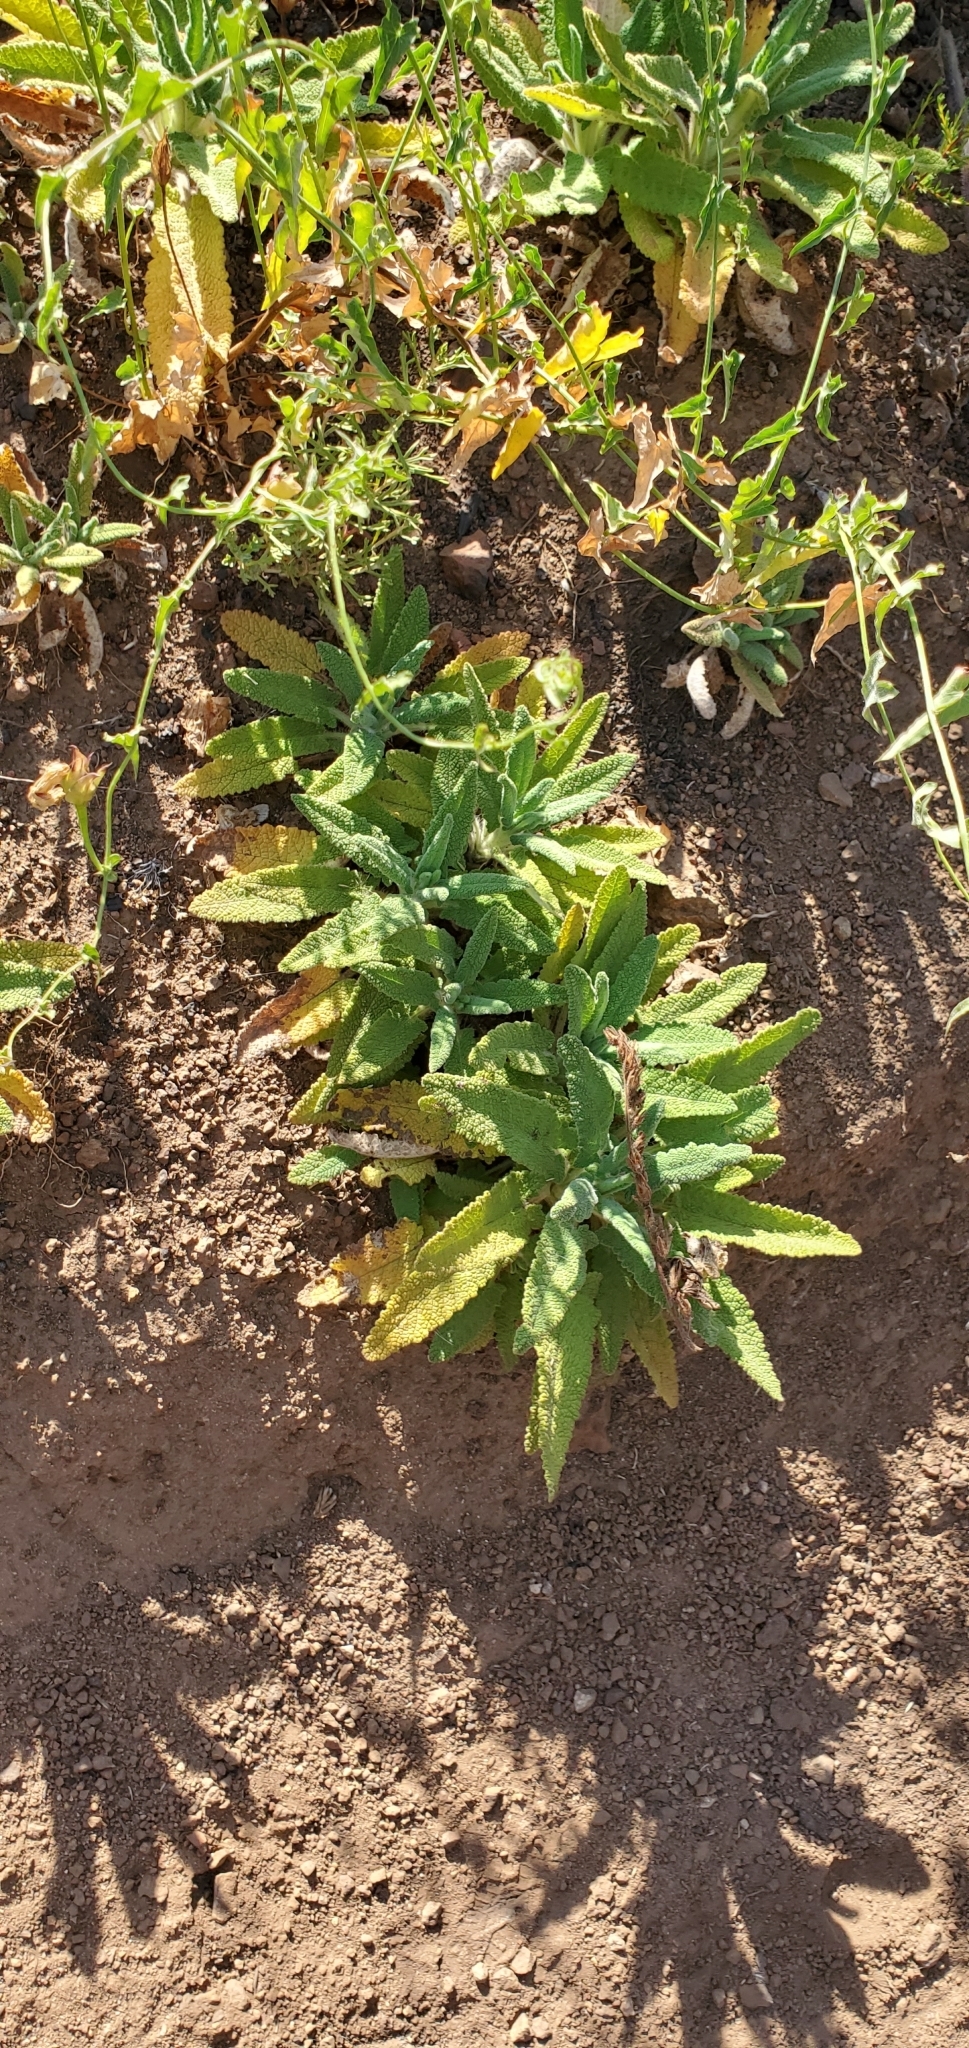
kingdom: Plantae
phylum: Tracheophyta
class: Magnoliopsida
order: Lamiales
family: Lamiaceae
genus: Salvia
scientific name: Salvia spathacea
